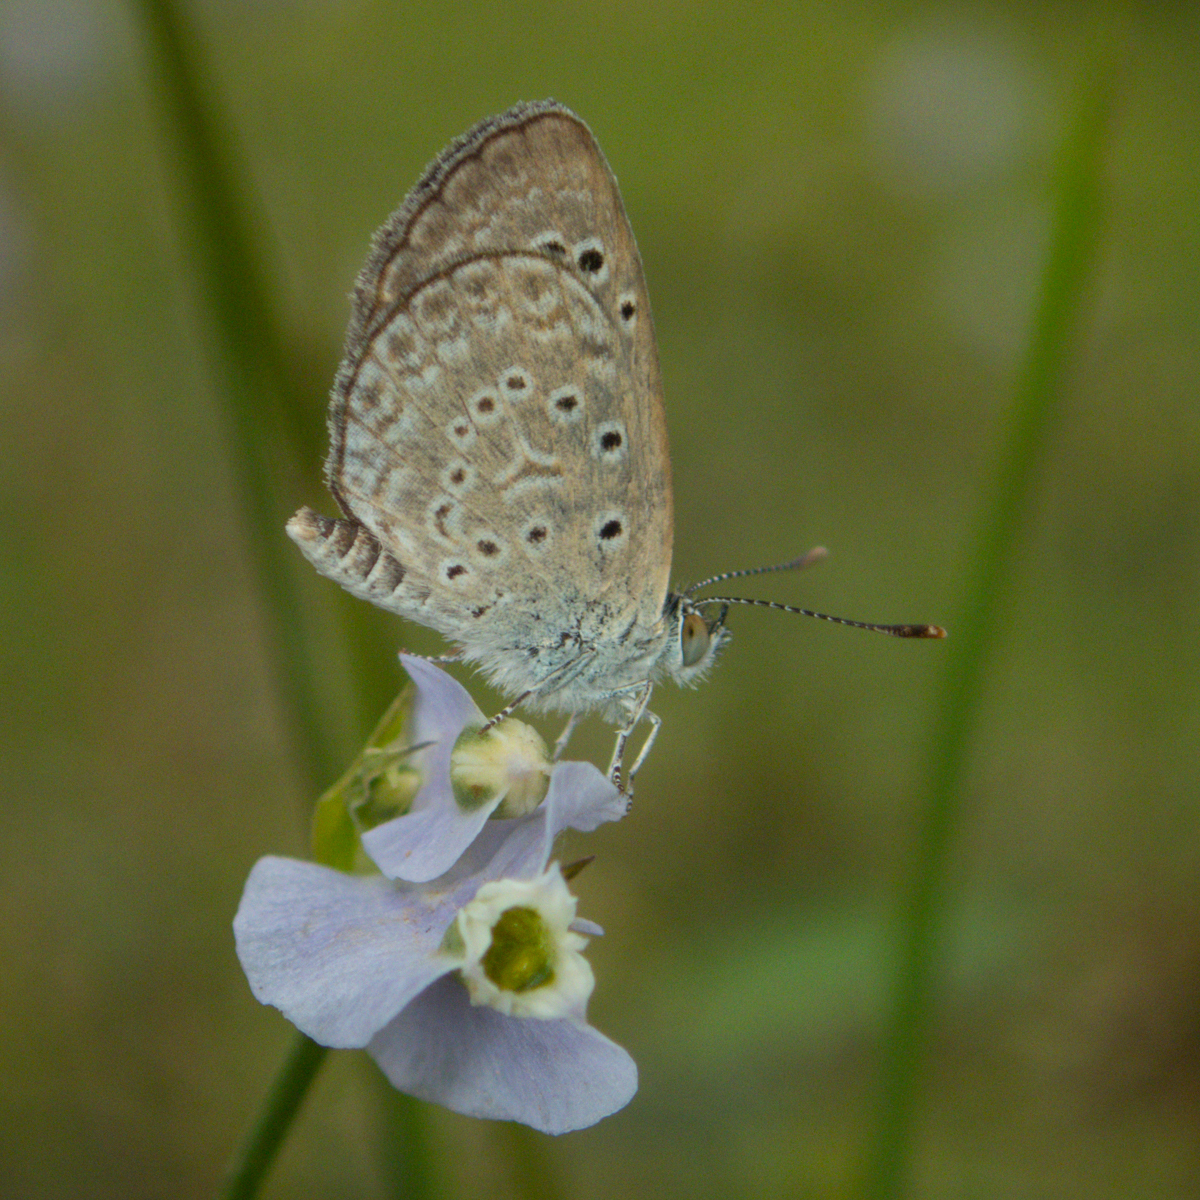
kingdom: Animalia
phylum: Arthropoda
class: Insecta
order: Lepidoptera
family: Lycaenidae
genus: Zizeeria
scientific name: Zizeeria karsandra
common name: Dark grass blue
